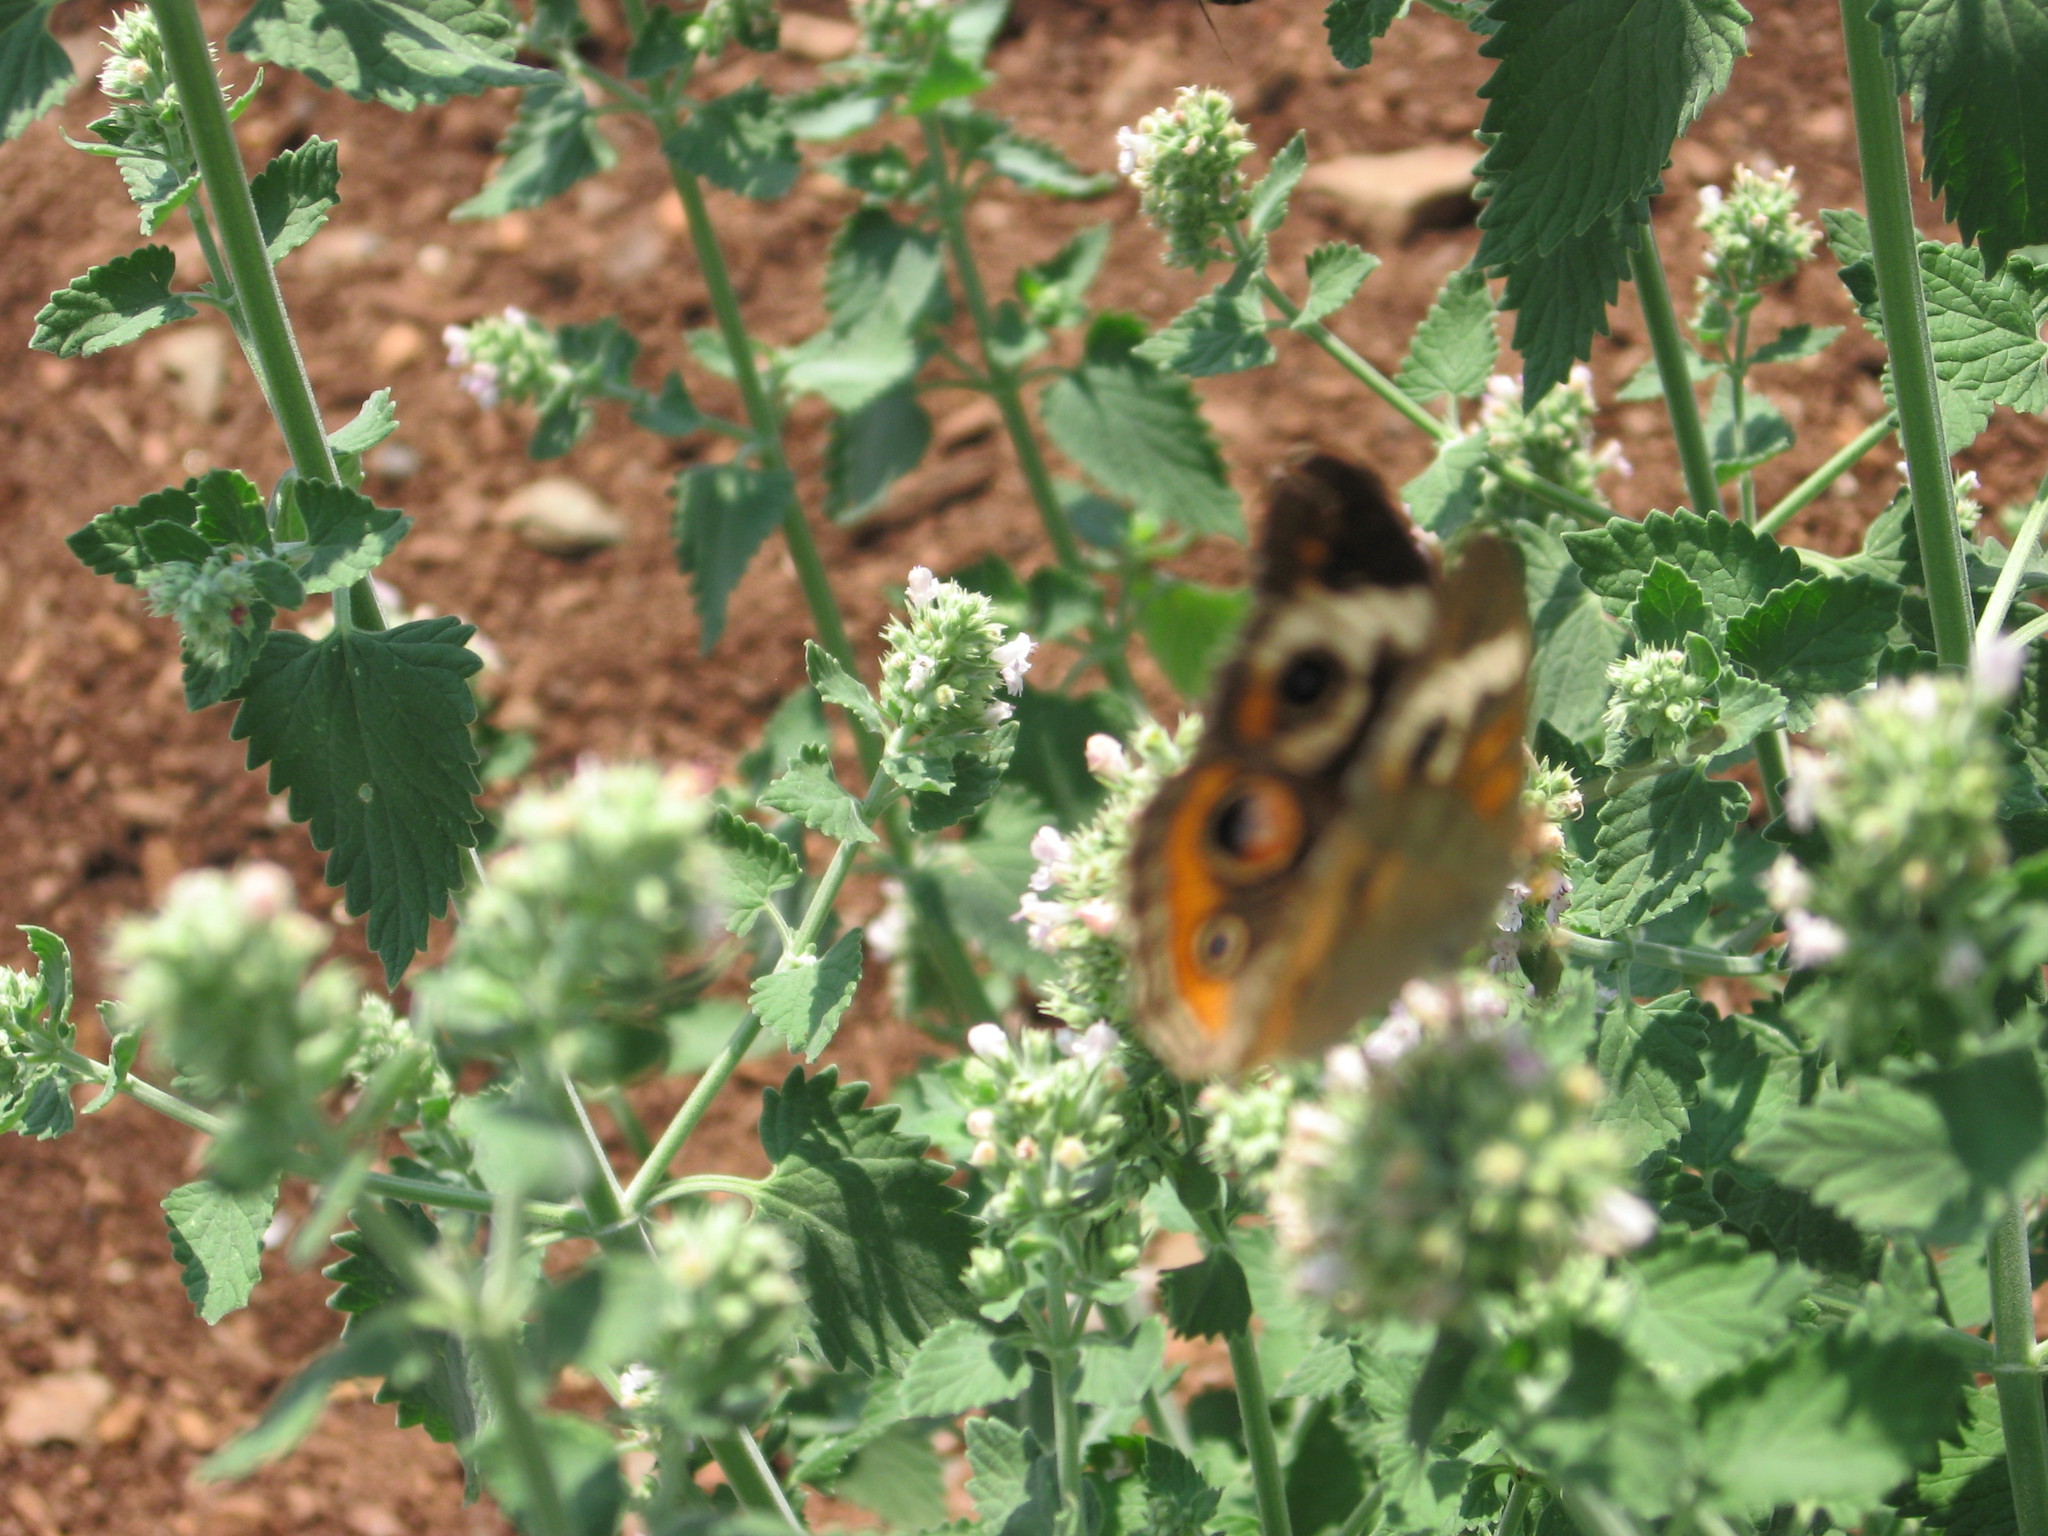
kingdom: Animalia
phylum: Arthropoda
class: Insecta
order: Lepidoptera
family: Nymphalidae
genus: Junonia
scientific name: Junonia coenia
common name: Common buckeye
